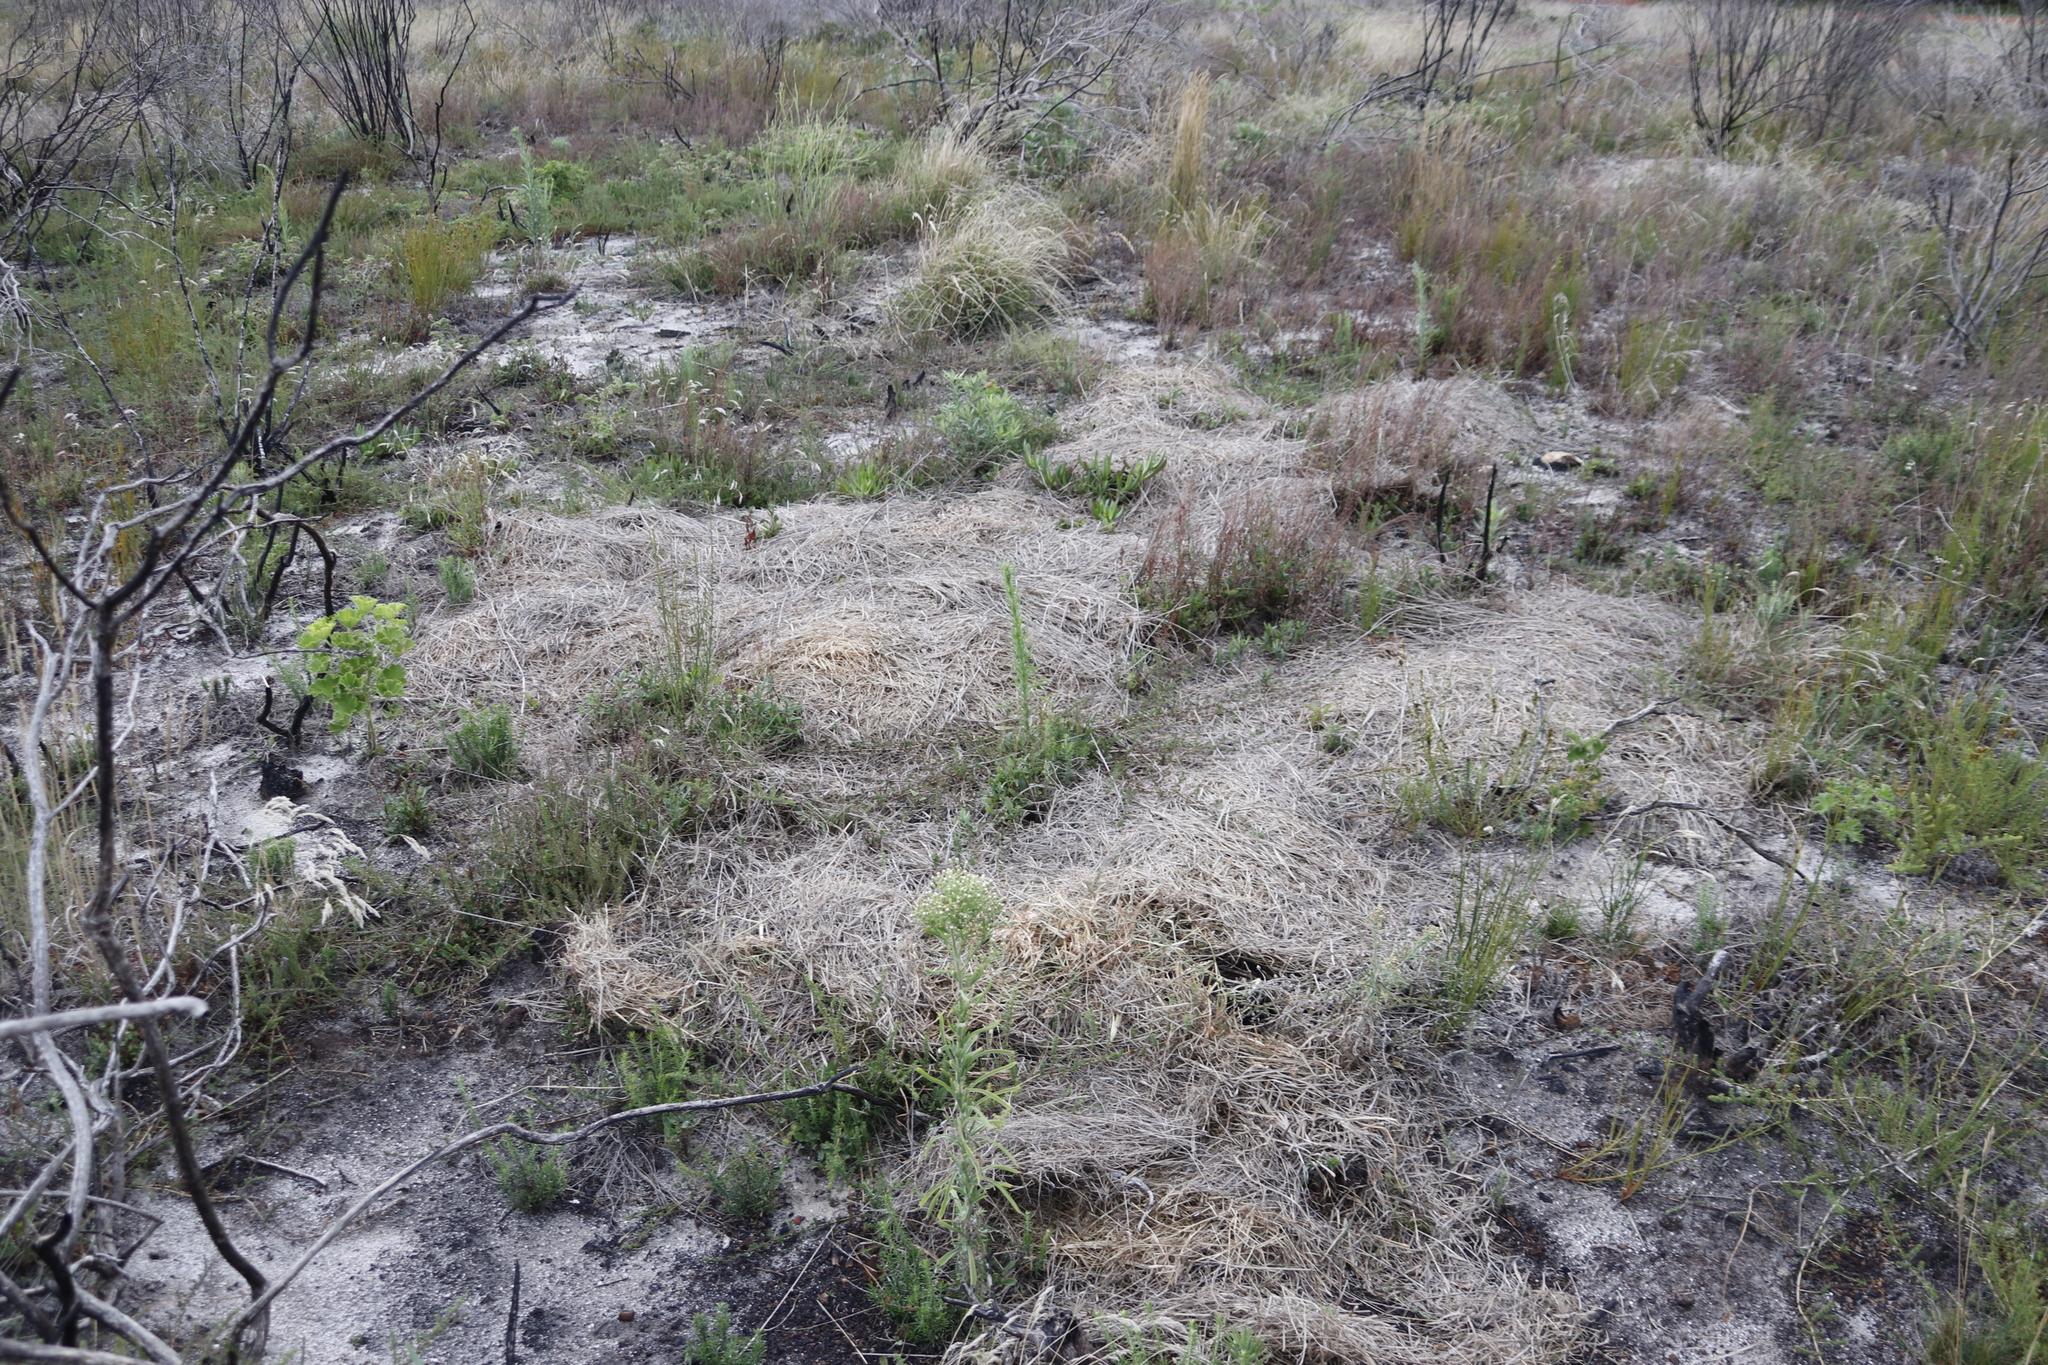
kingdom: Plantae
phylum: Tracheophyta
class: Liliopsida
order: Poales
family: Poaceae
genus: Cenchrus
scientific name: Cenchrus clandestinus
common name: Kikuyugrass
